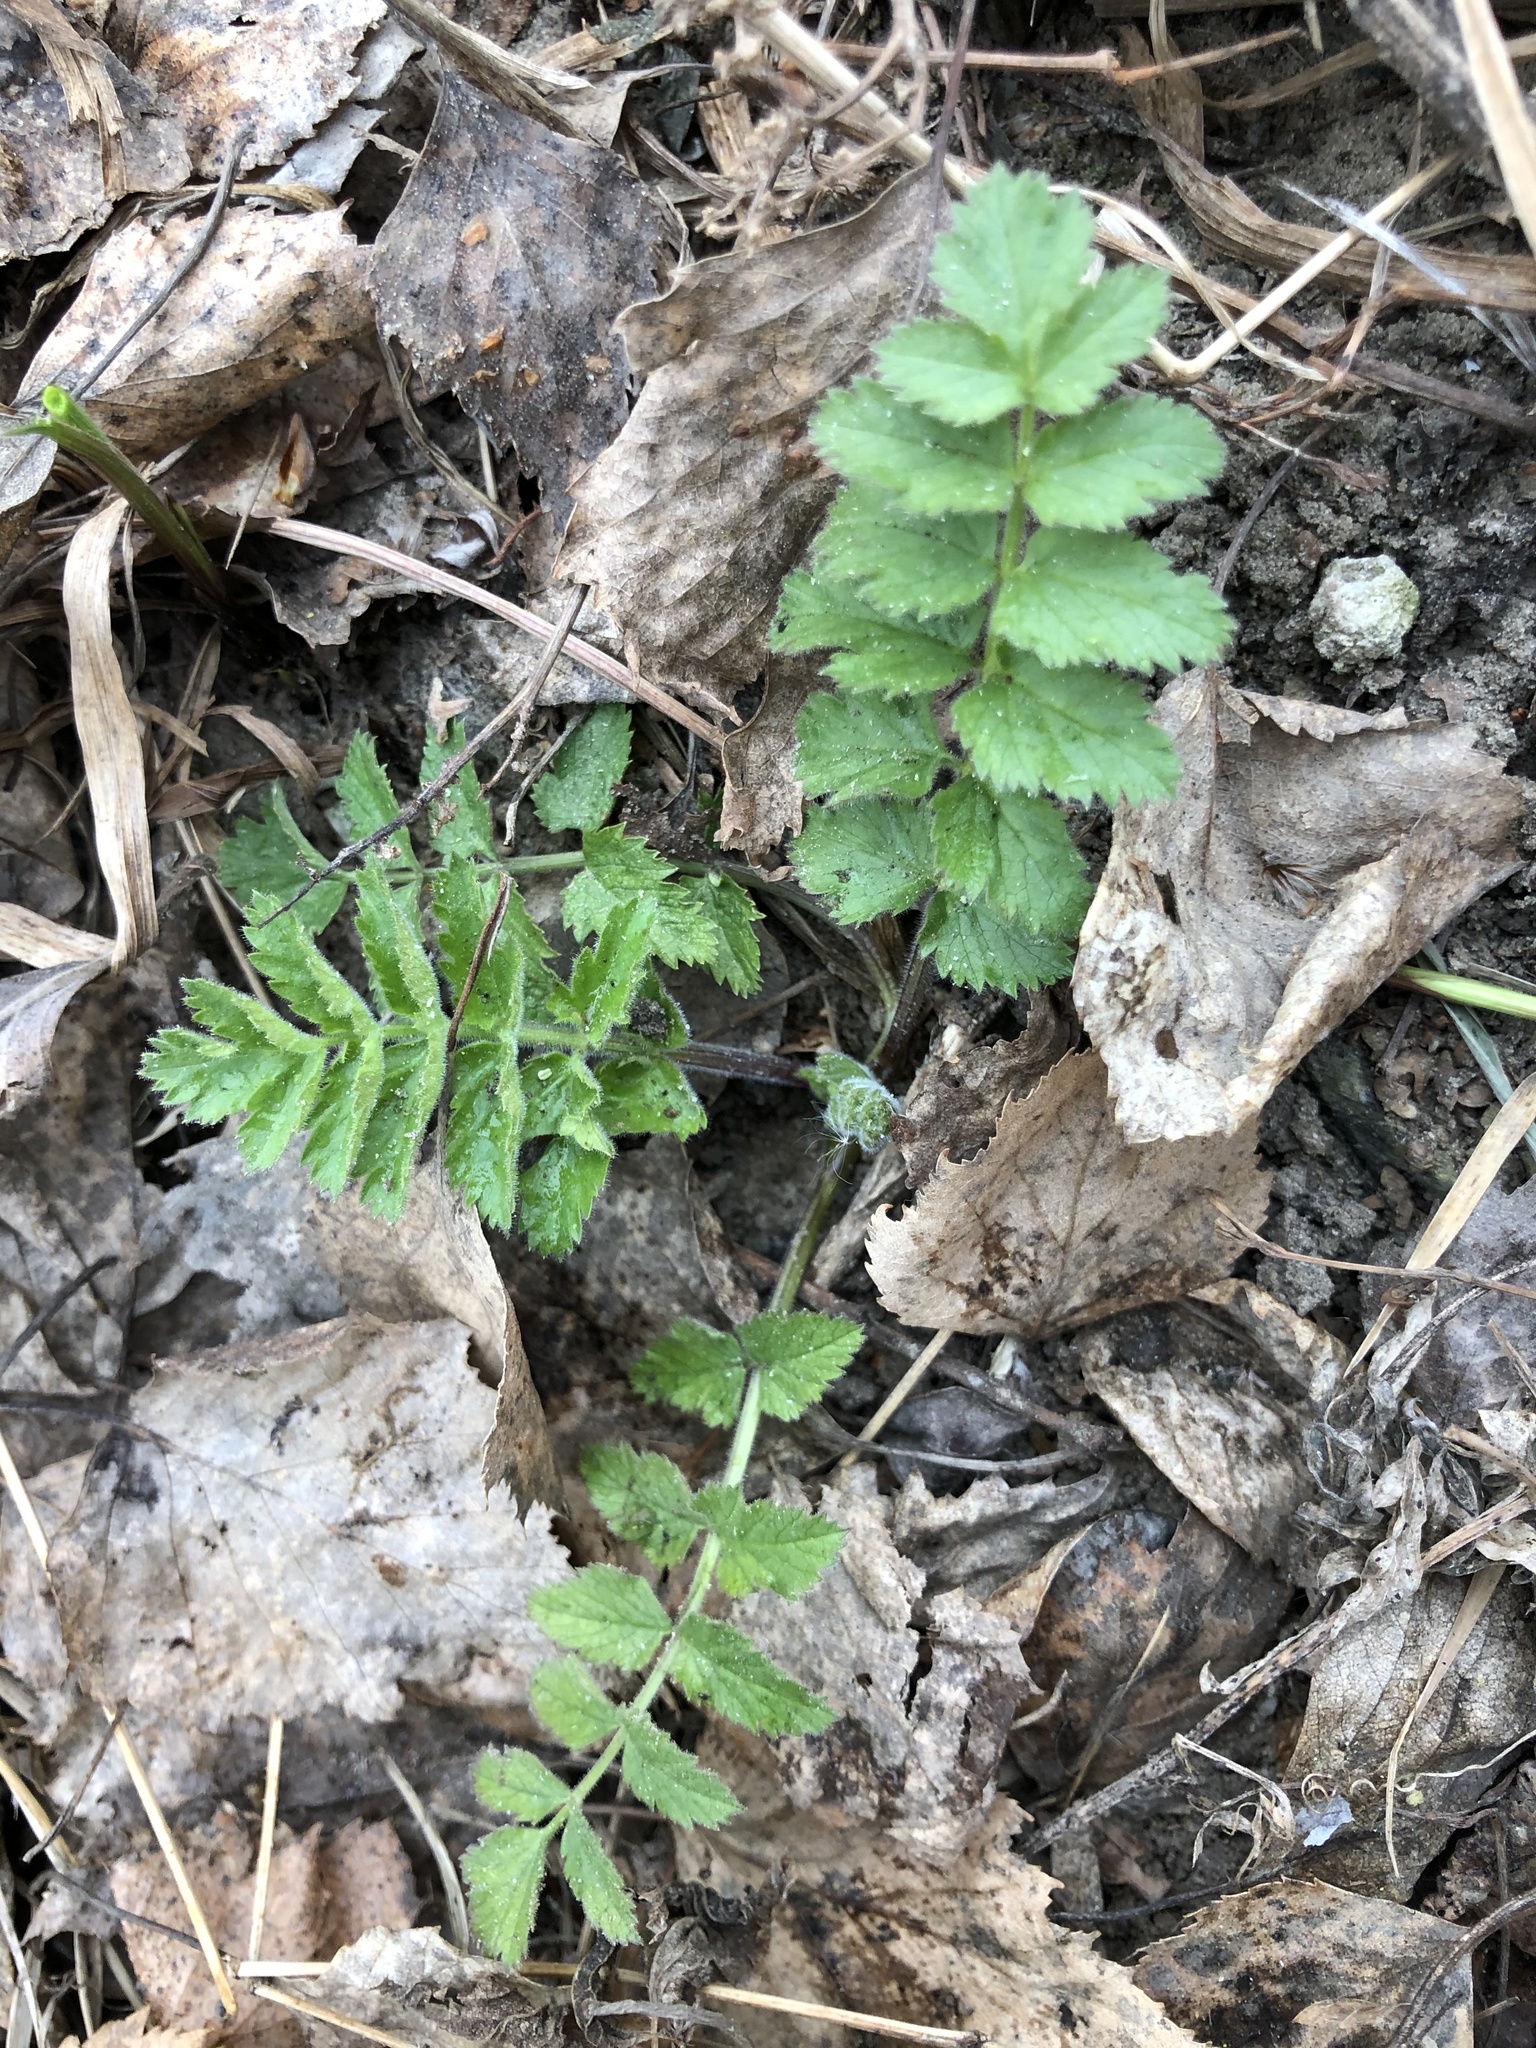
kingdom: Plantae
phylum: Tracheophyta
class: Magnoliopsida
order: Apiales
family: Apiaceae
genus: Pimpinella
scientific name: Pimpinella saxifraga
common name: Burnet-saxifrage
